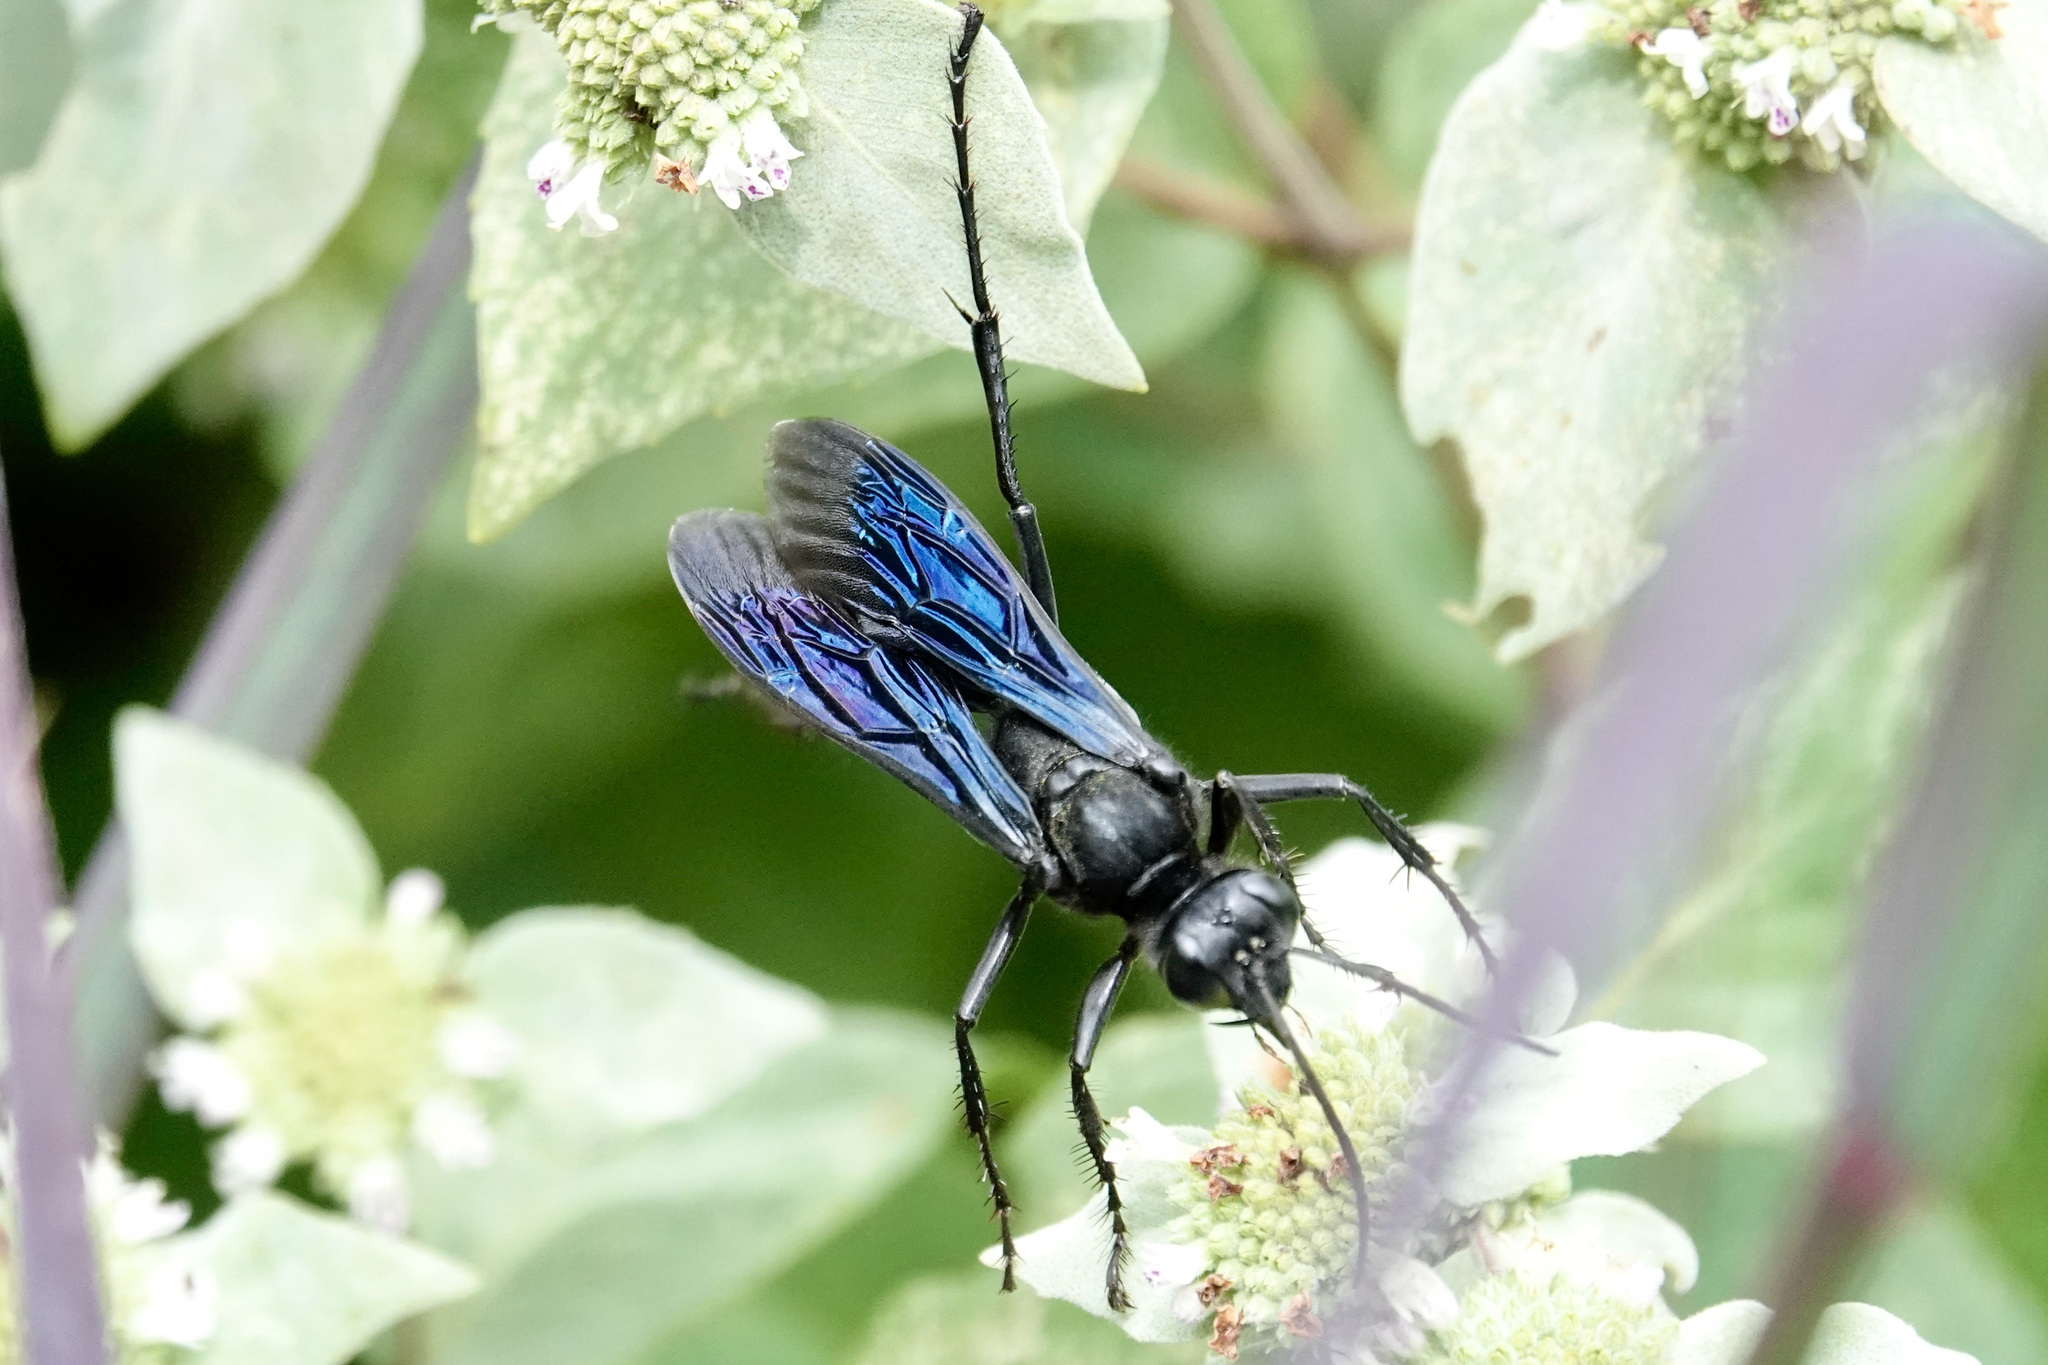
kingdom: Animalia
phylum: Arthropoda
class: Insecta
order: Hymenoptera
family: Sphecidae
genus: Sphex
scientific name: Sphex pensylvanicus
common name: Great black digger wasp
